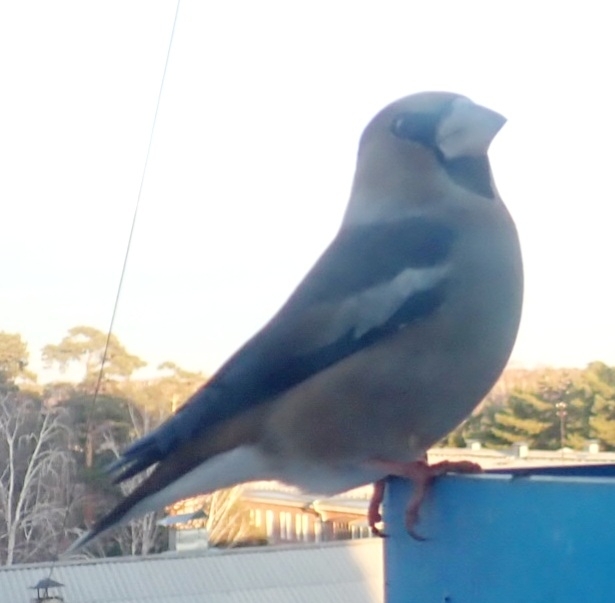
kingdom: Animalia
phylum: Chordata
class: Aves
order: Passeriformes
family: Fringillidae
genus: Coccothraustes
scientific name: Coccothraustes coccothraustes
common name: Hawfinch
